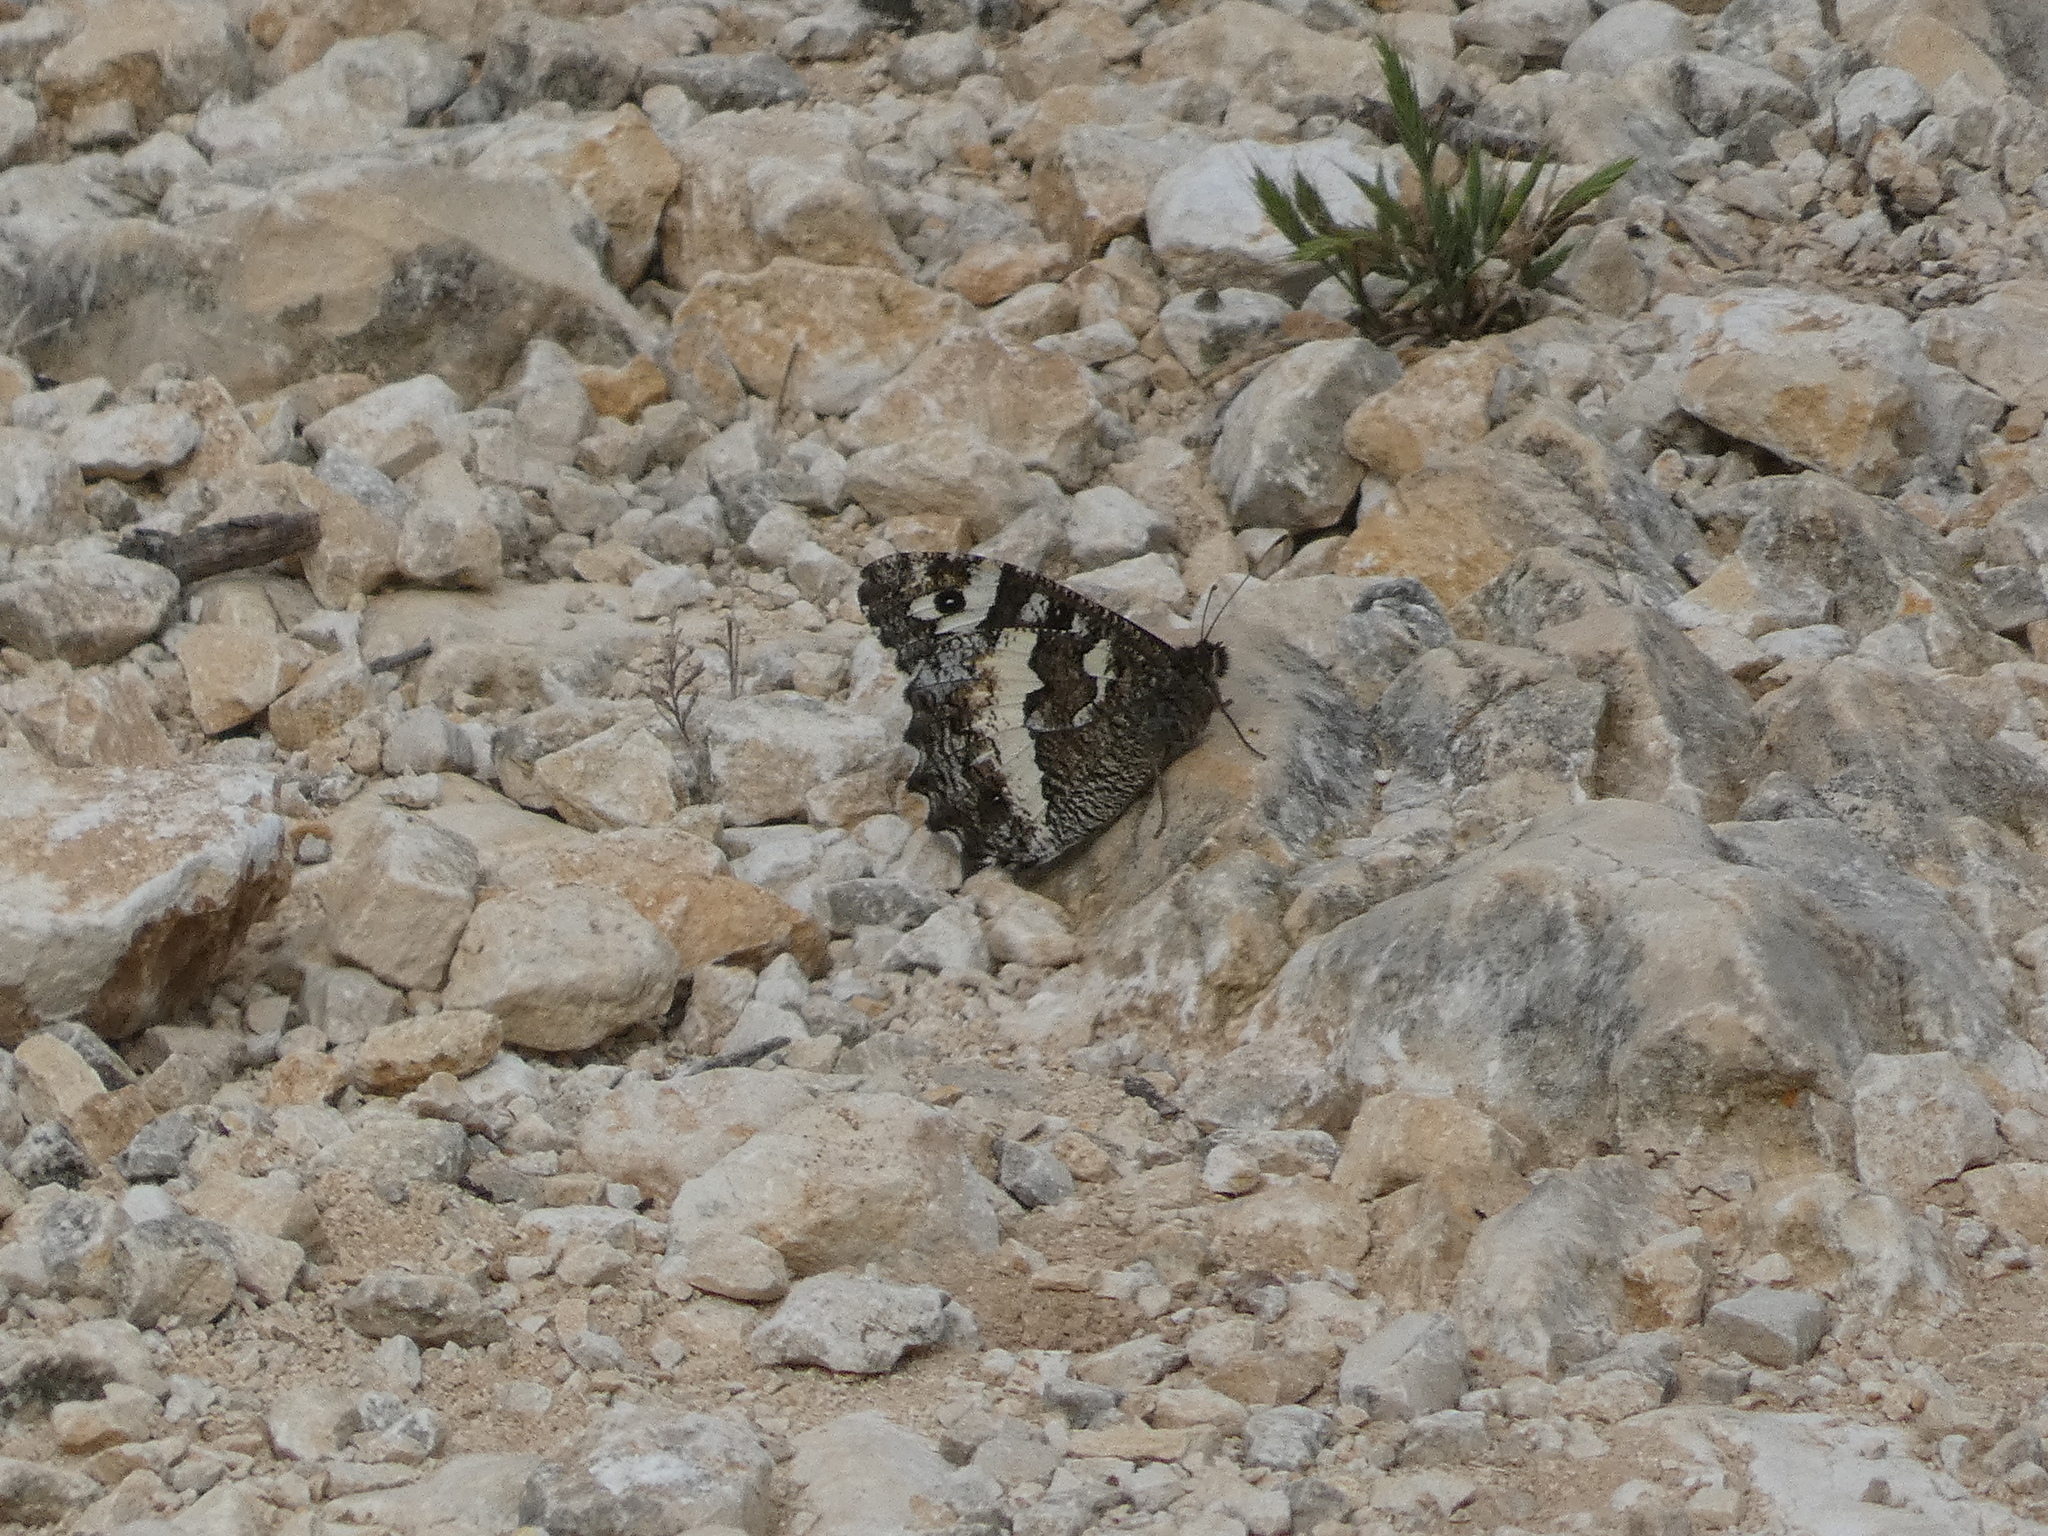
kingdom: Animalia
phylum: Arthropoda
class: Insecta
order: Lepidoptera
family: Lycaenidae
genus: Loweia
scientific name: Loweia tityrus
